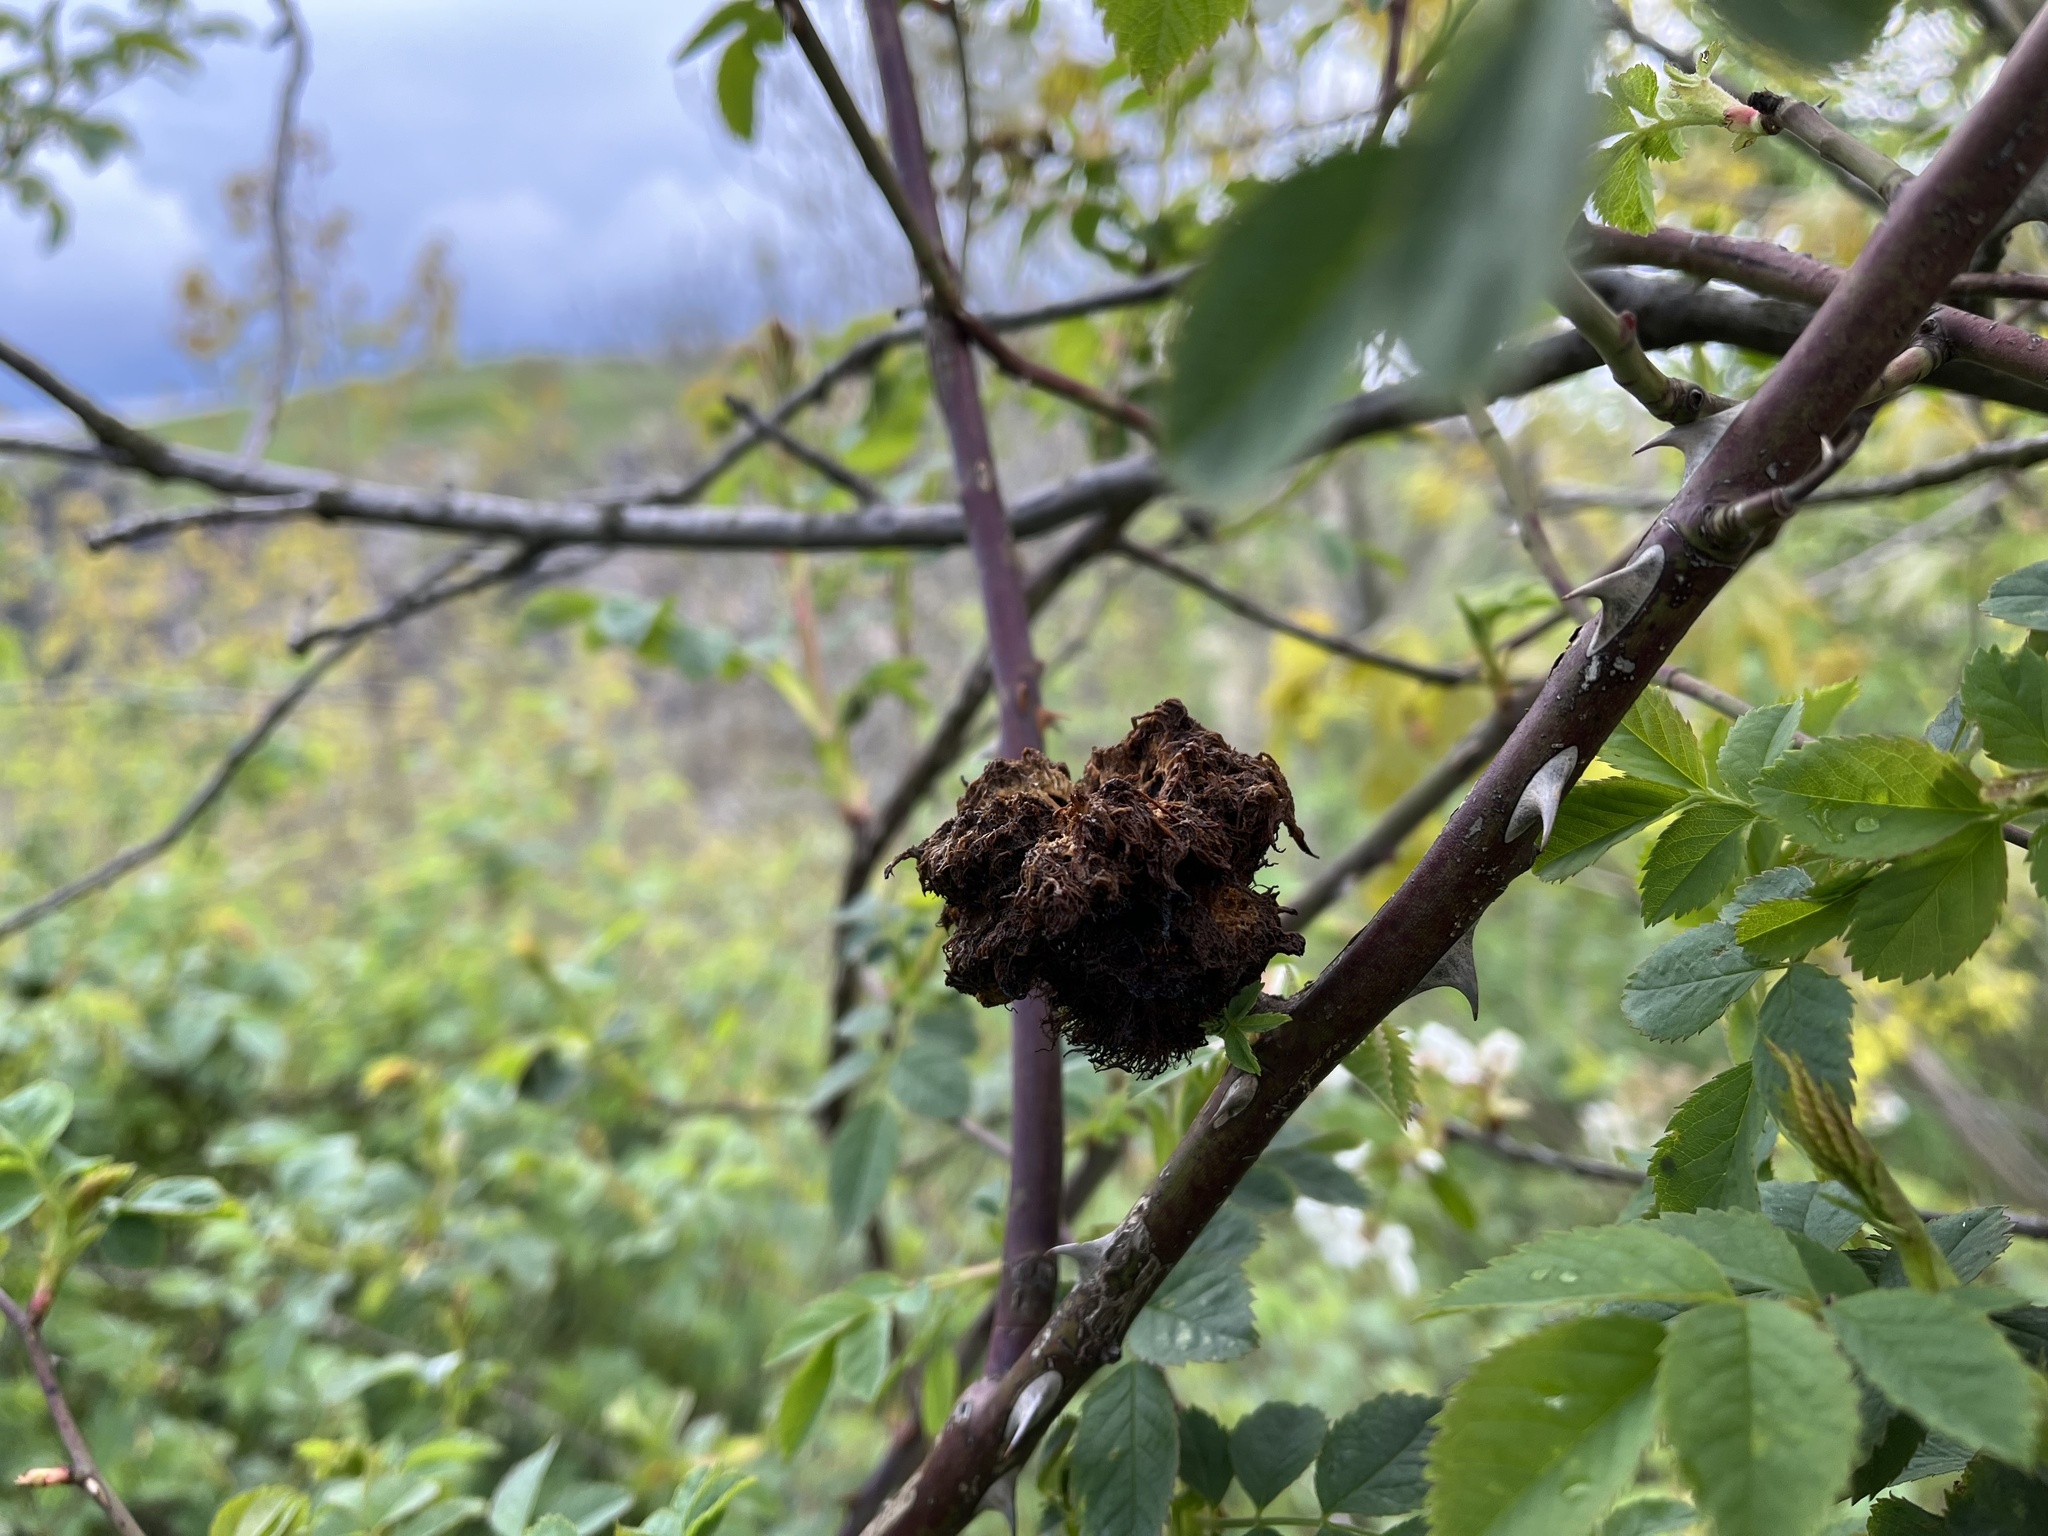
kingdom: Animalia
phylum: Arthropoda
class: Insecta
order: Hymenoptera
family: Cynipidae
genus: Diplolepis
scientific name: Diplolepis rosae
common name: Bedeguar gall
